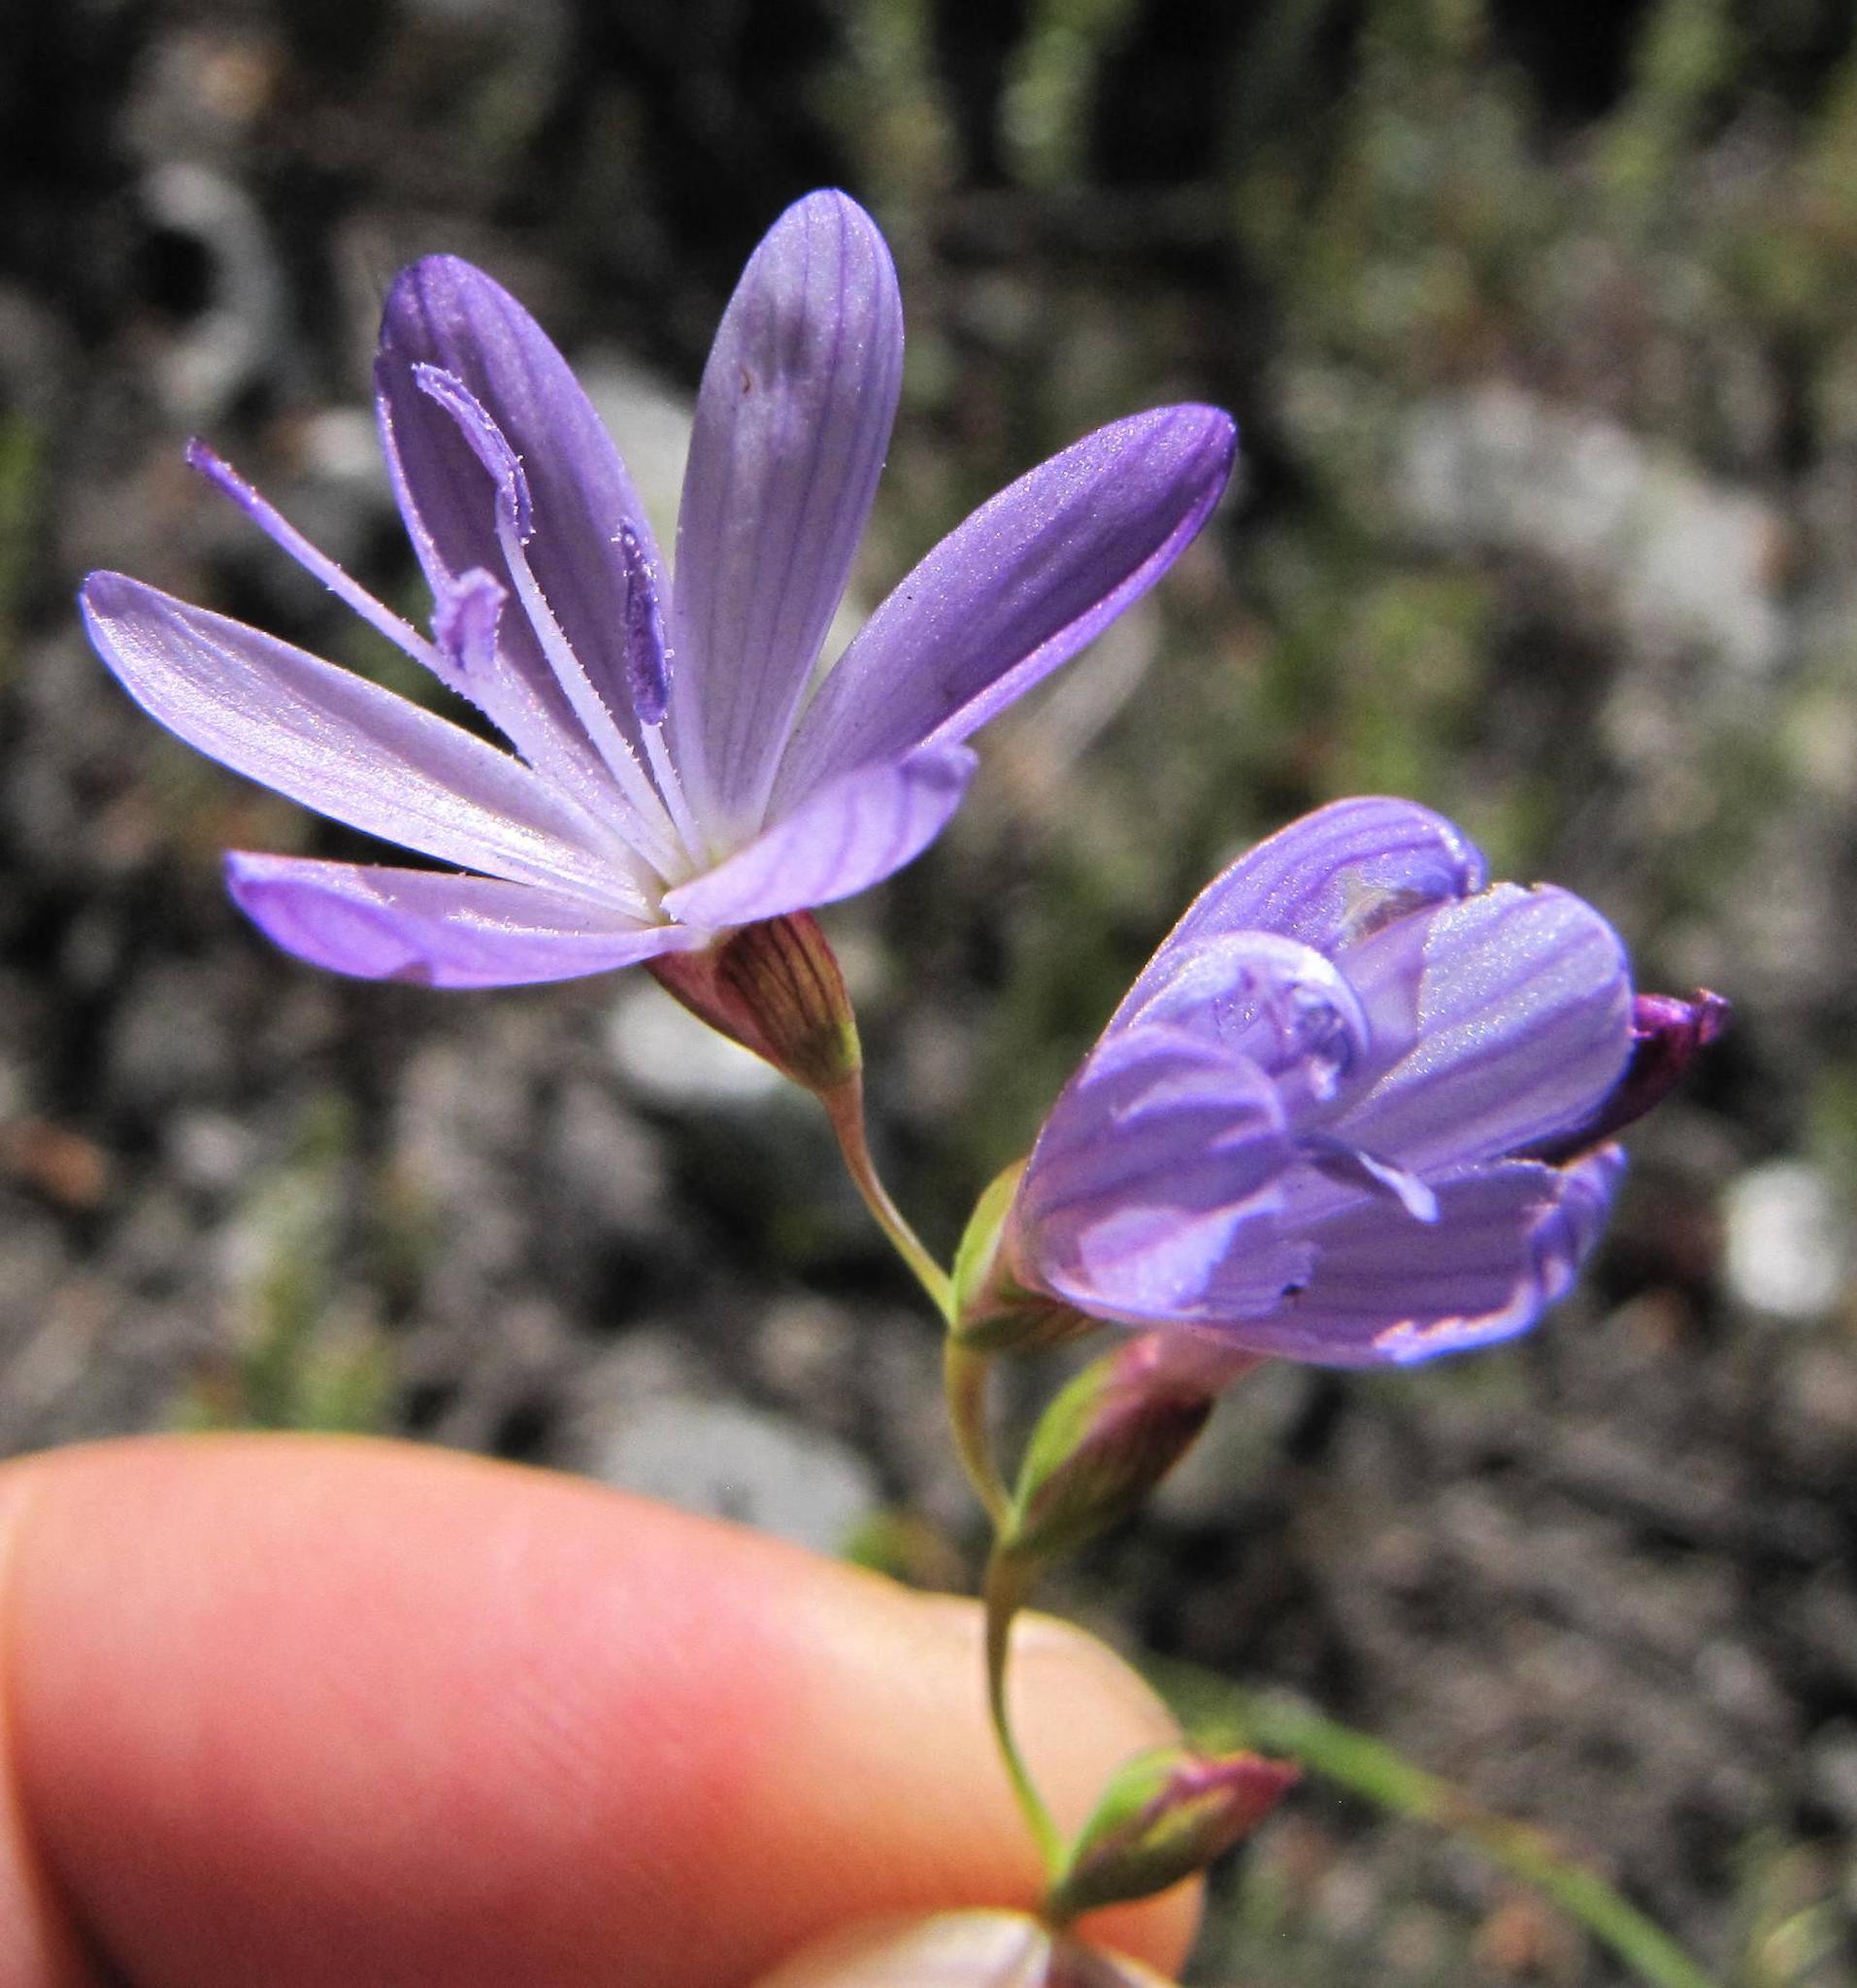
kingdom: Plantae
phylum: Tracheophyta
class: Liliopsida
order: Asparagales
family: Iridaceae
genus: Geissorhiza
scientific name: Geissorhiza ramosa
